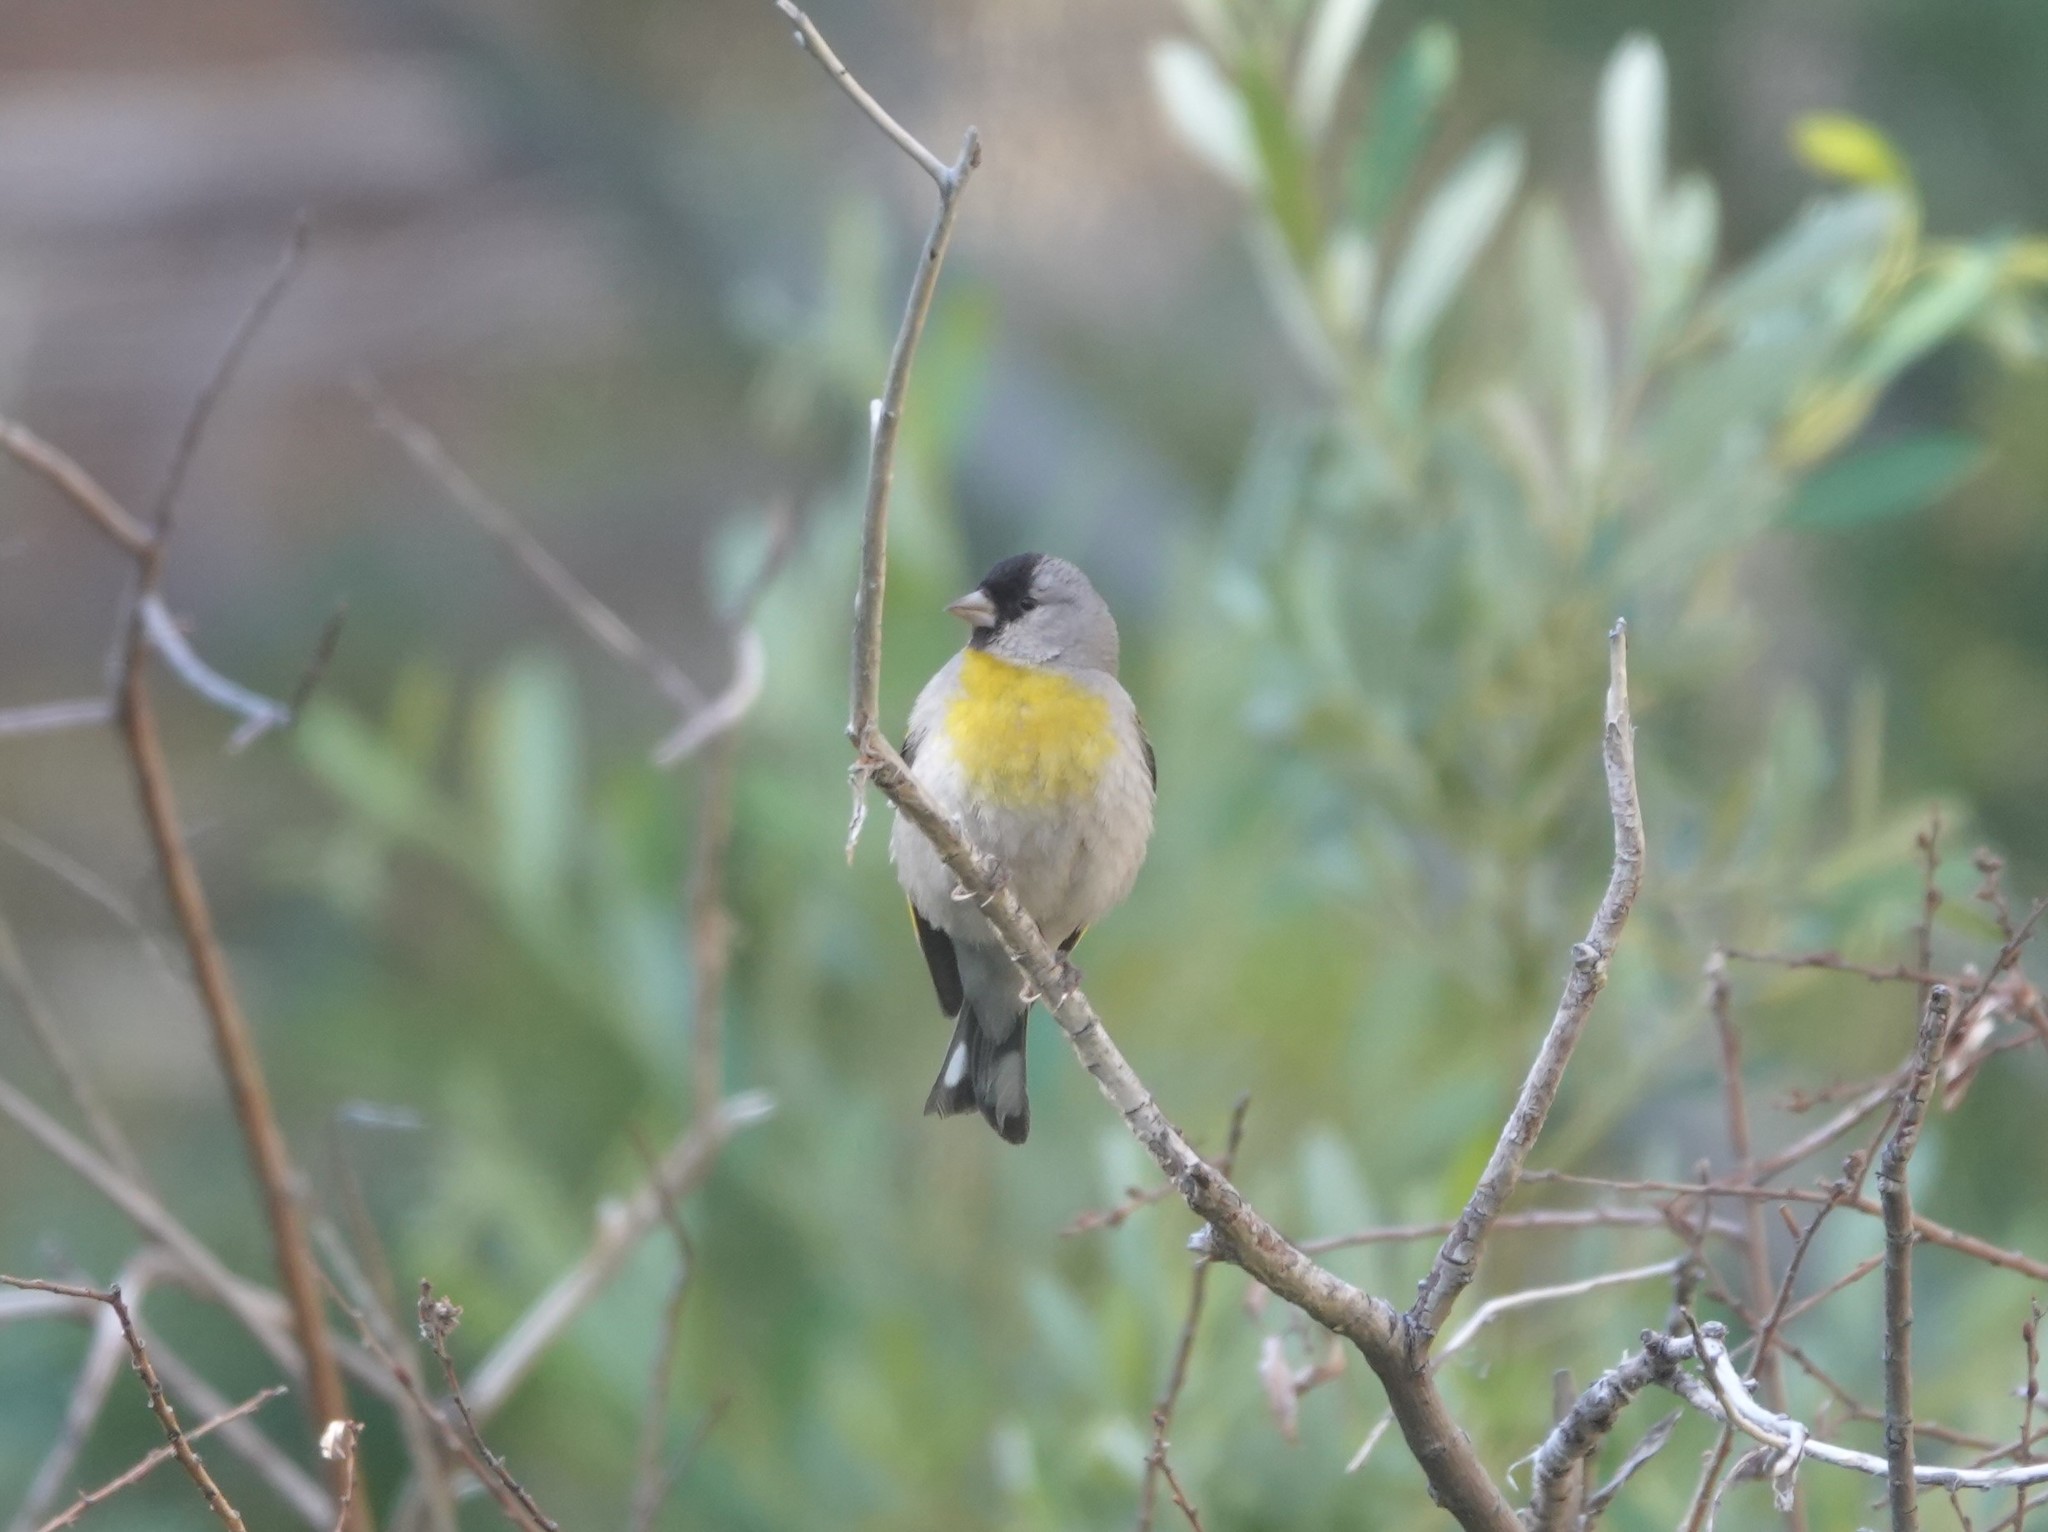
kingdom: Animalia
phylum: Chordata
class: Aves
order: Passeriformes
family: Fringillidae
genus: Spinus
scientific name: Spinus lawrencei
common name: Lawrence's goldfinch
